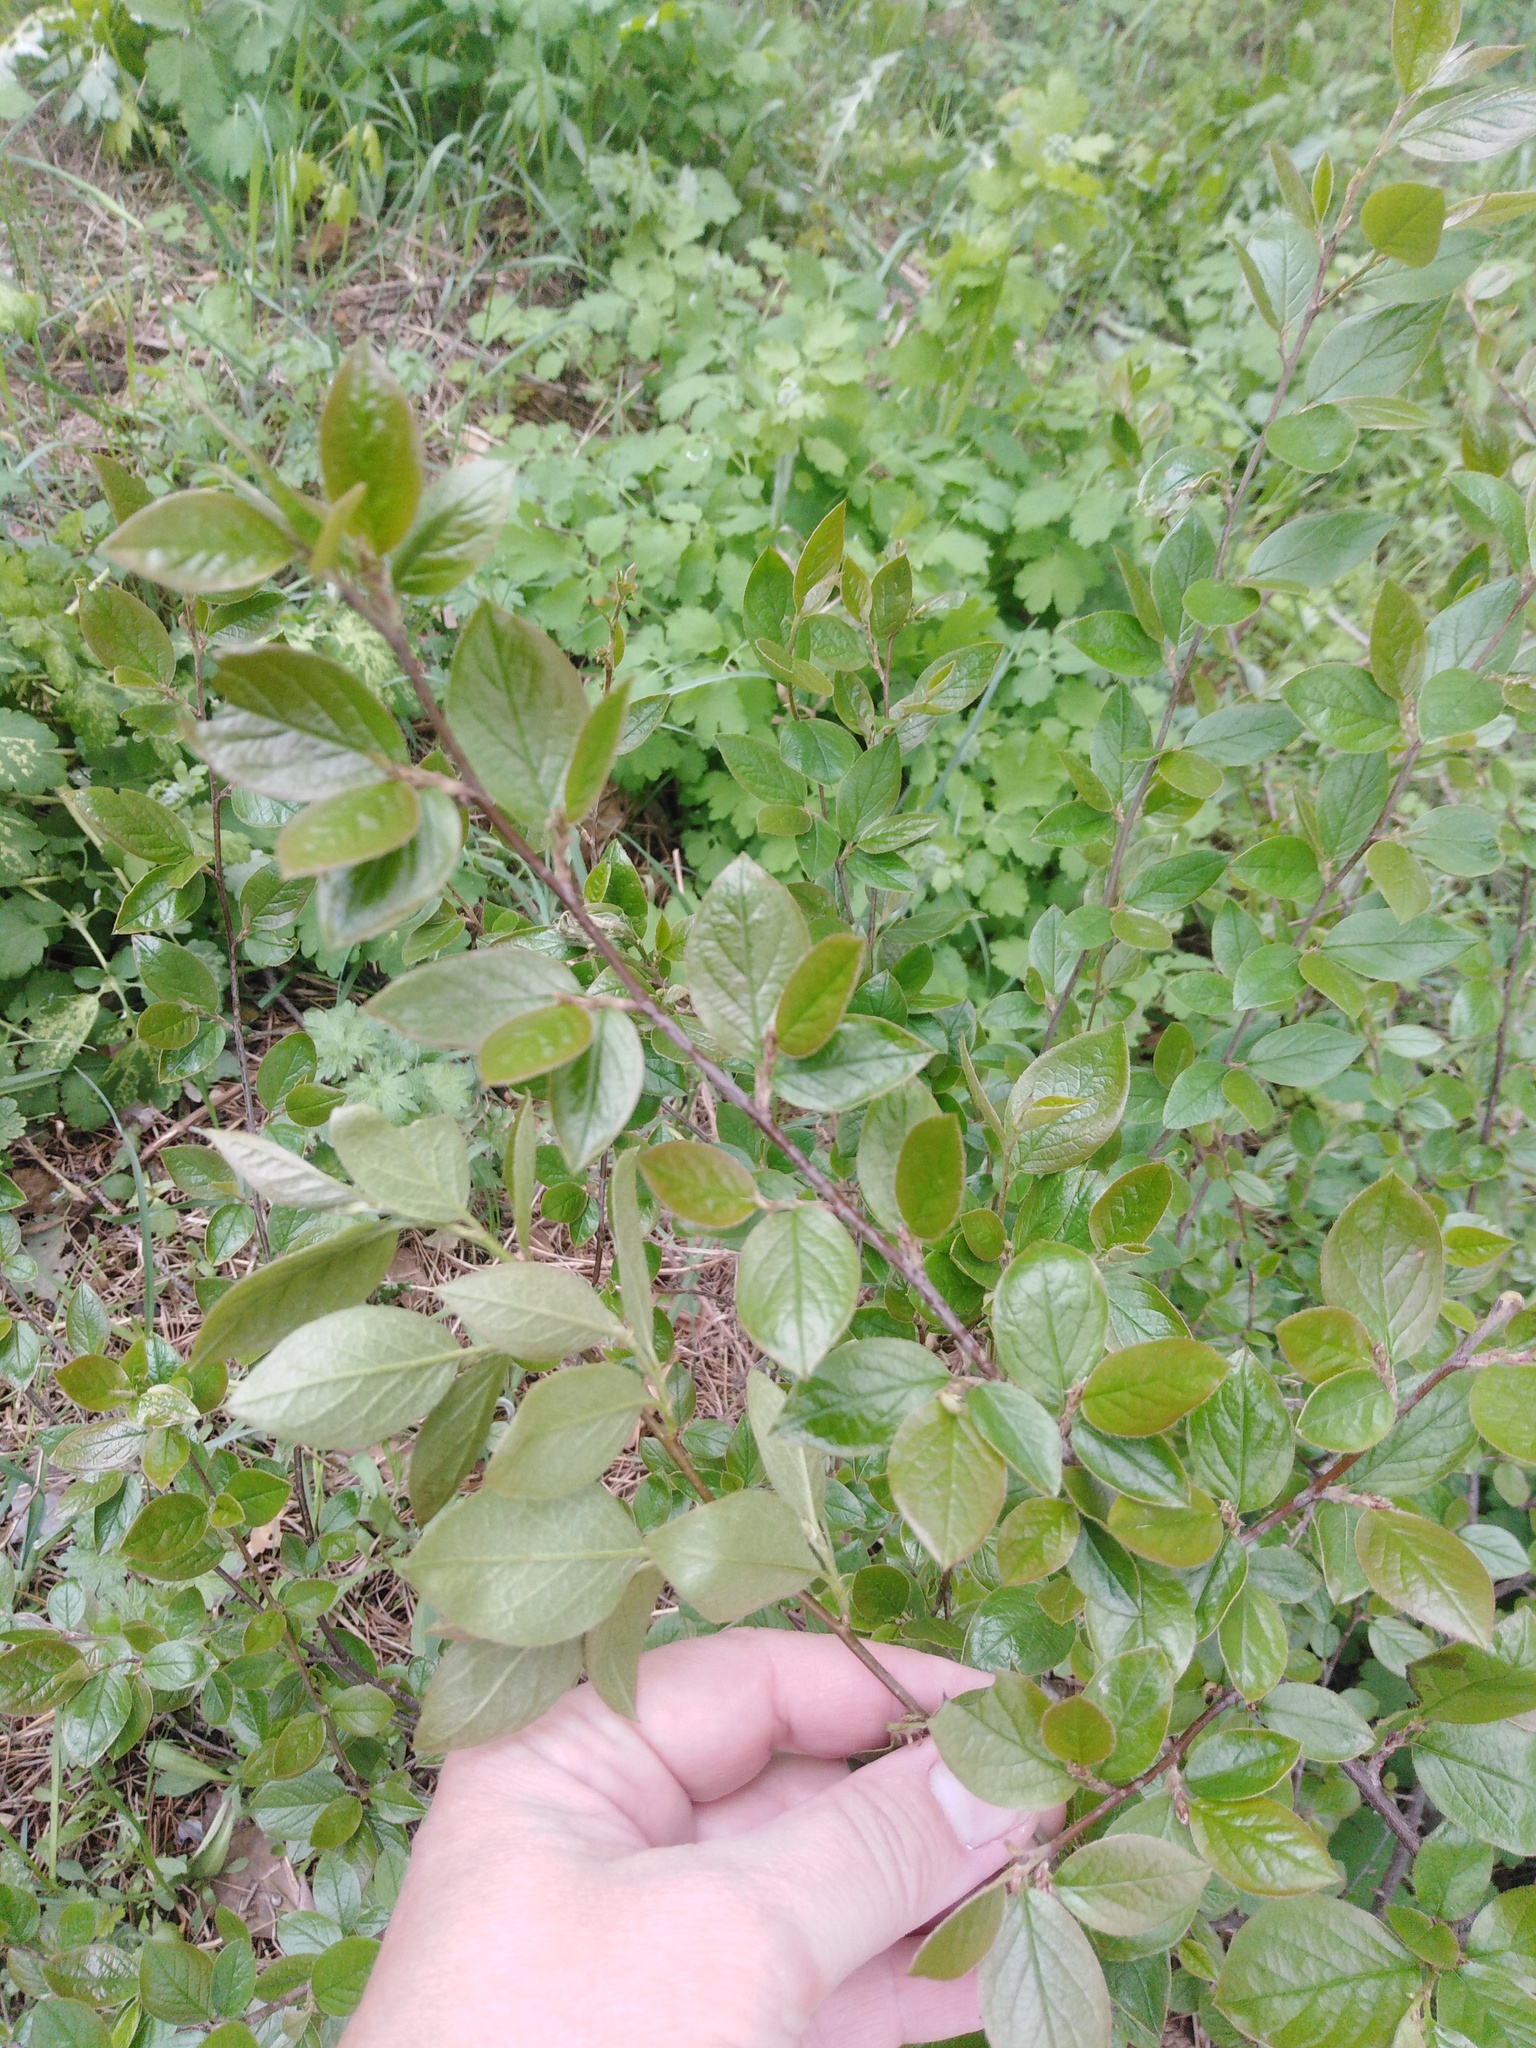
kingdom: Plantae
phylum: Tracheophyta
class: Magnoliopsida
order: Rosales
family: Rosaceae
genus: Cotoneaster
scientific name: Cotoneaster acutifolius
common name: Peking cotoneaster
